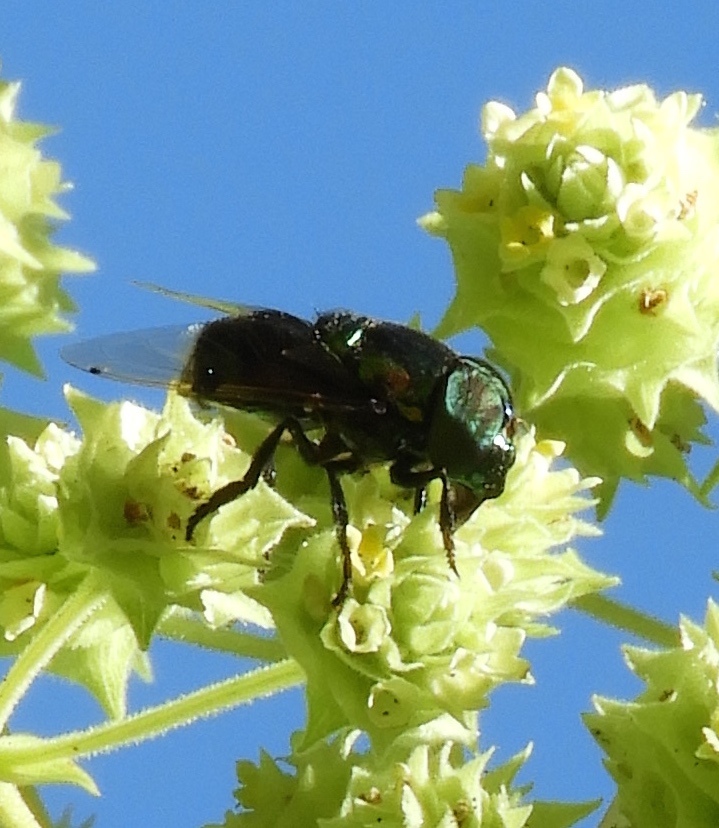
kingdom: Animalia
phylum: Arthropoda
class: Insecta
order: Diptera
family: Syrphidae
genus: Ornidia
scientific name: Ornidia obesa
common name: Syrphid fly
